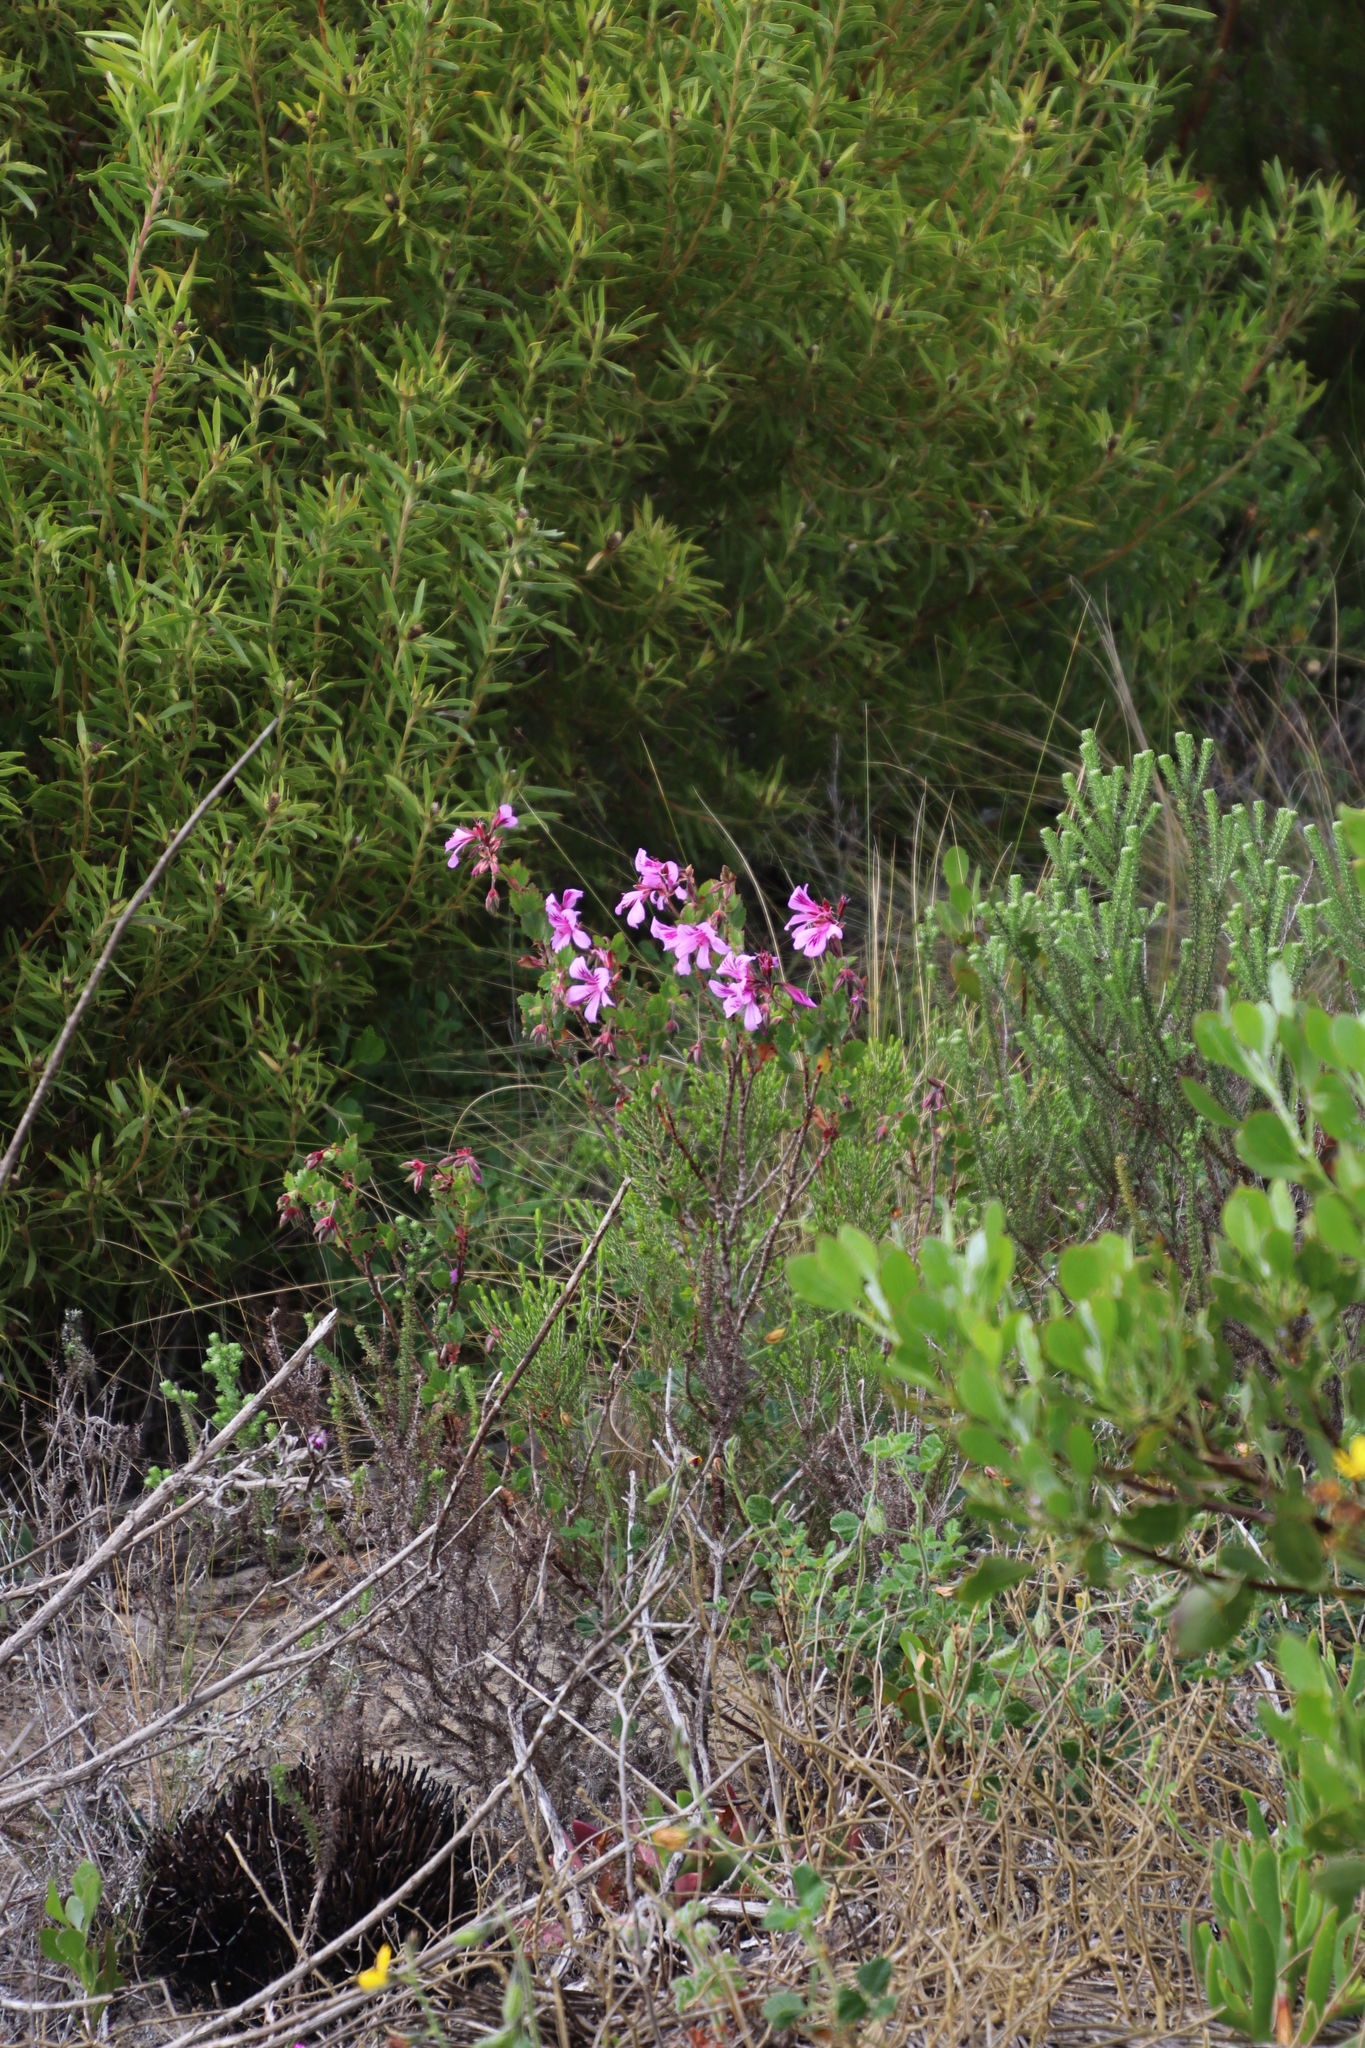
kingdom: Plantae
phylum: Tracheophyta
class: Magnoliopsida
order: Geraniales
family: Geraniaceae
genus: Pelargonium
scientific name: Pelargonium betulinum
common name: Birch-leaf pelargonium
